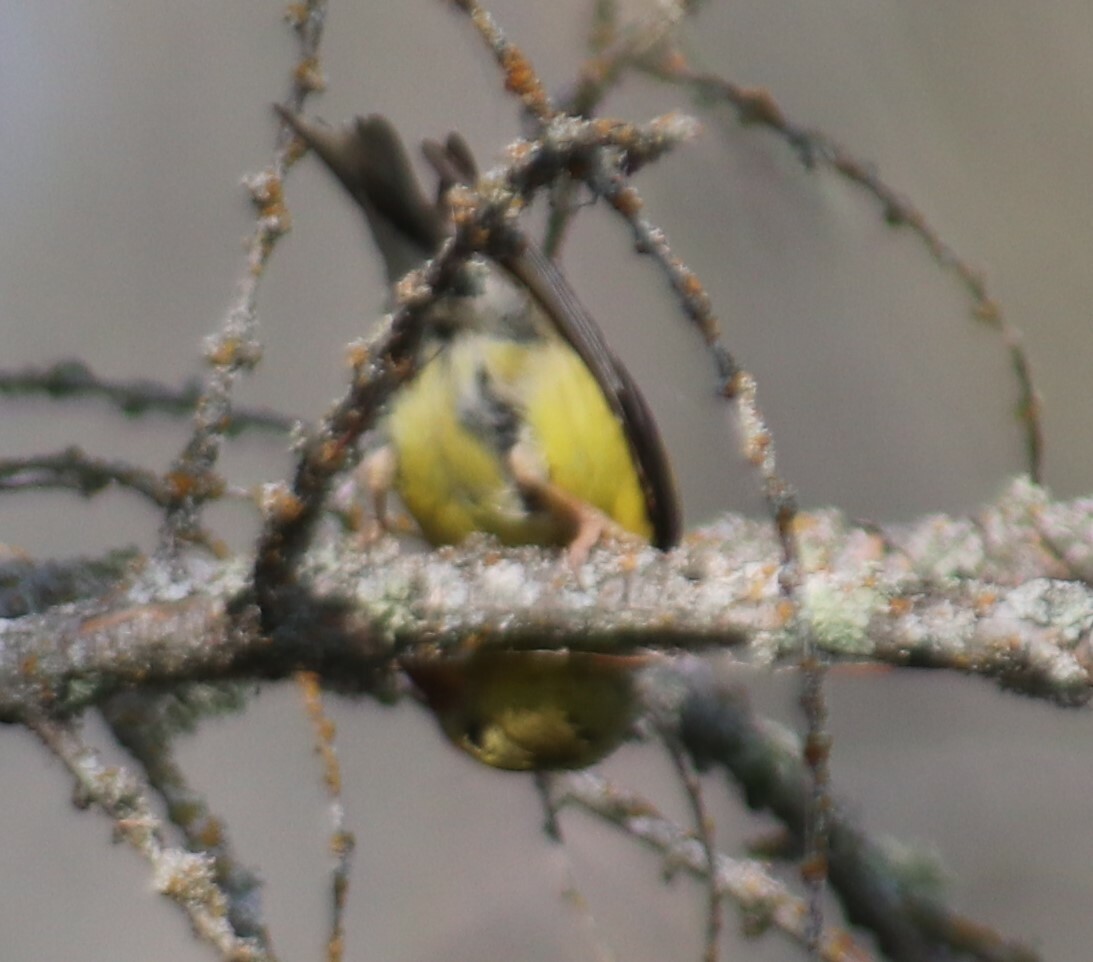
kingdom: Animalia
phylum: Chordata
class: Aves
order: Passeriformes
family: Fringillidae
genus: Spinus
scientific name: Spinus tristis
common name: American goldfinch
